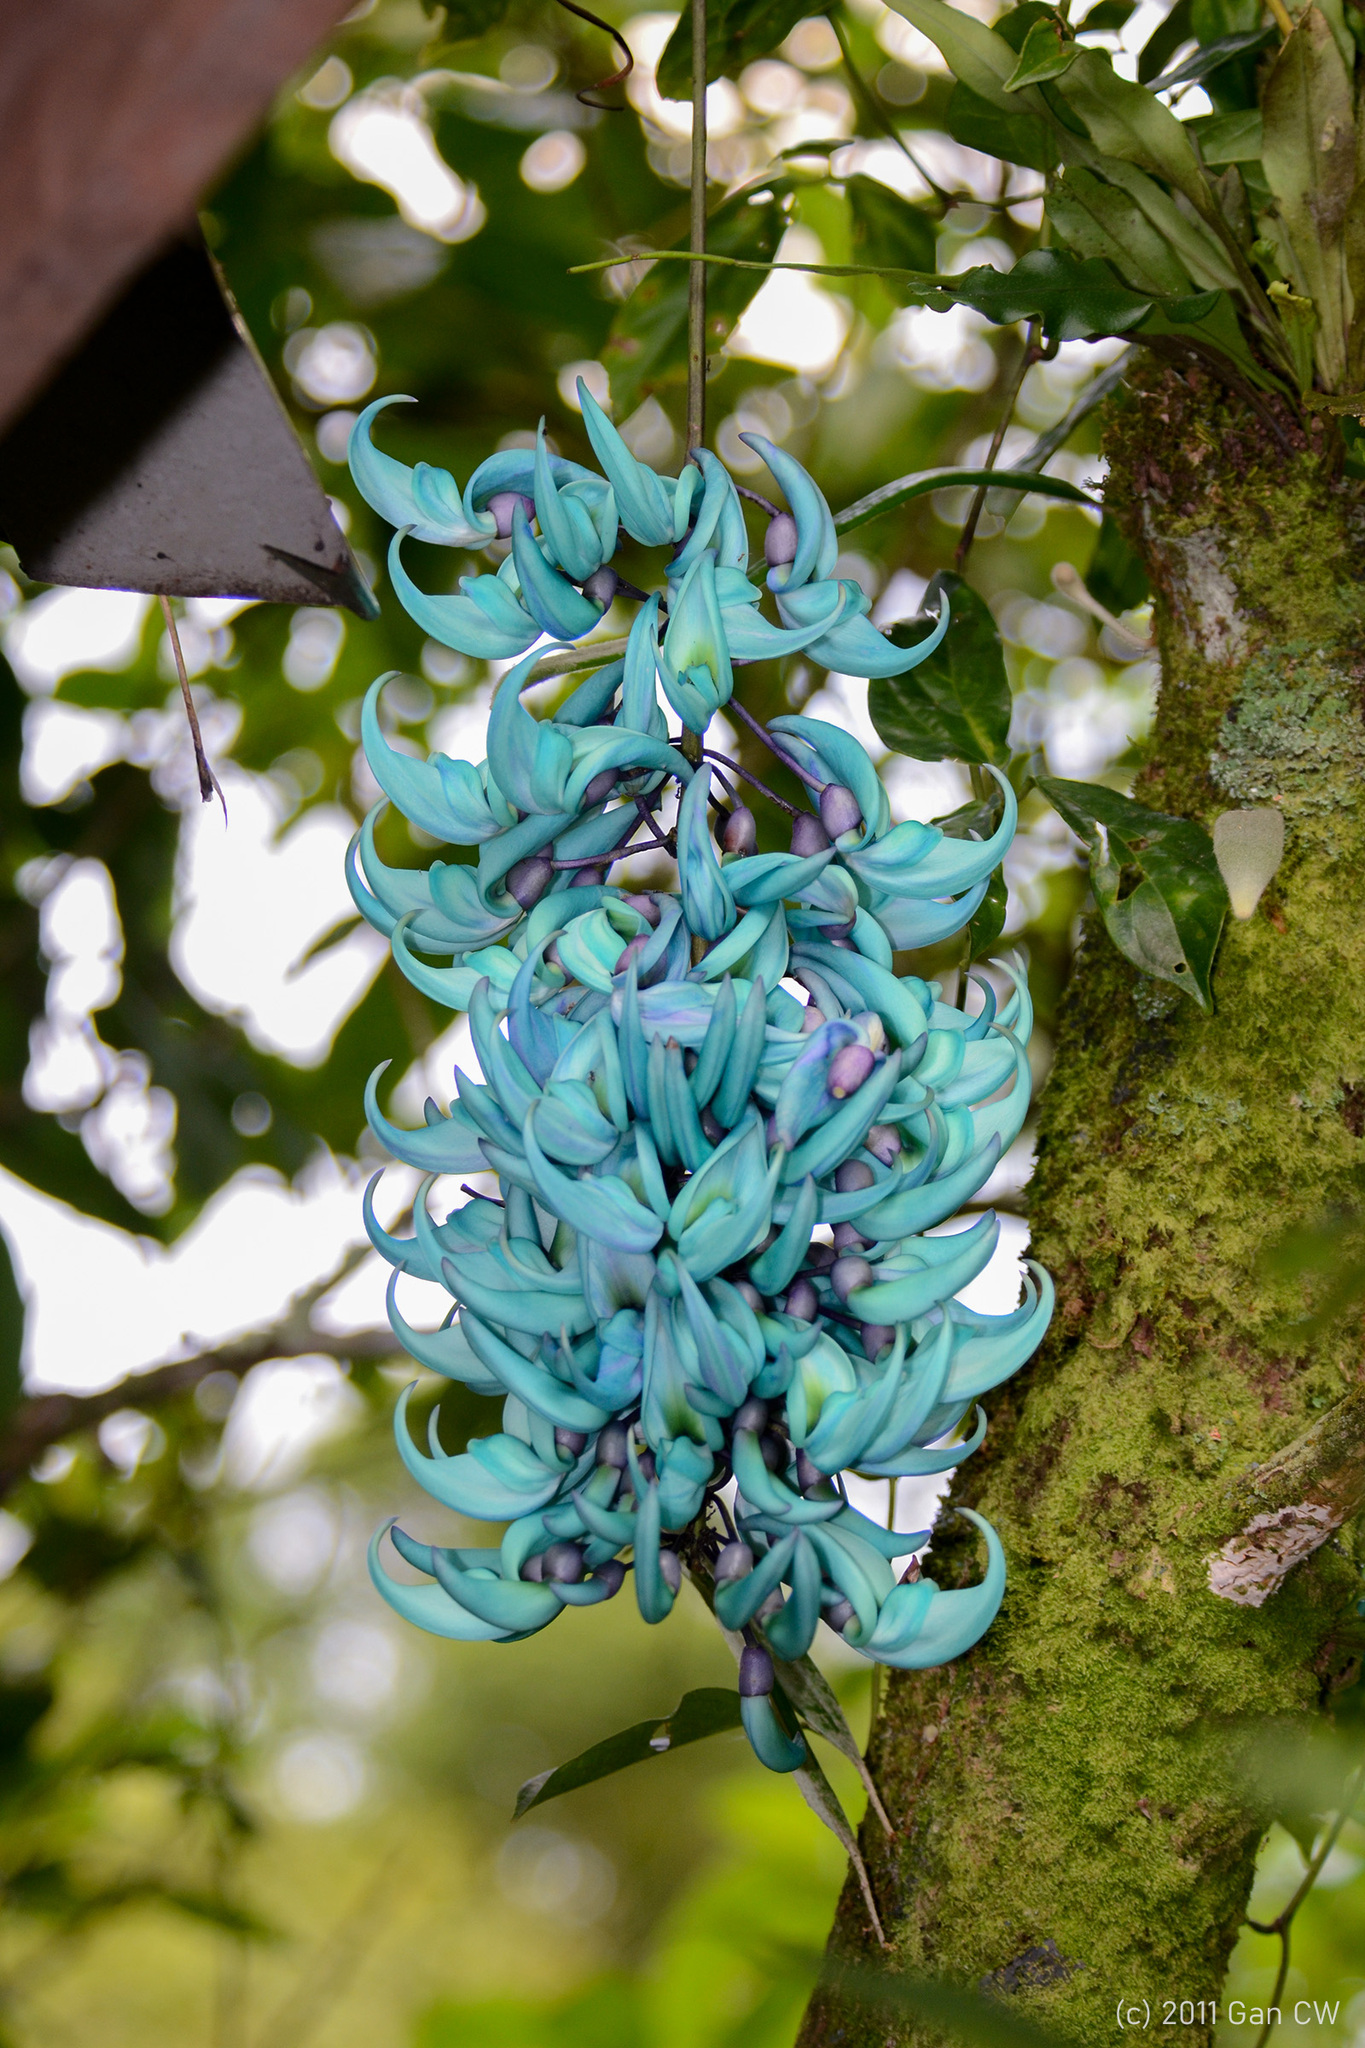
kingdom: Plantae
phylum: Tracheophyta
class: Magnoliopsida
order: Fabales
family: Fabaceae
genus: Strongylodon
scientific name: Strongylodon macrobotrys
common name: Jadevine
